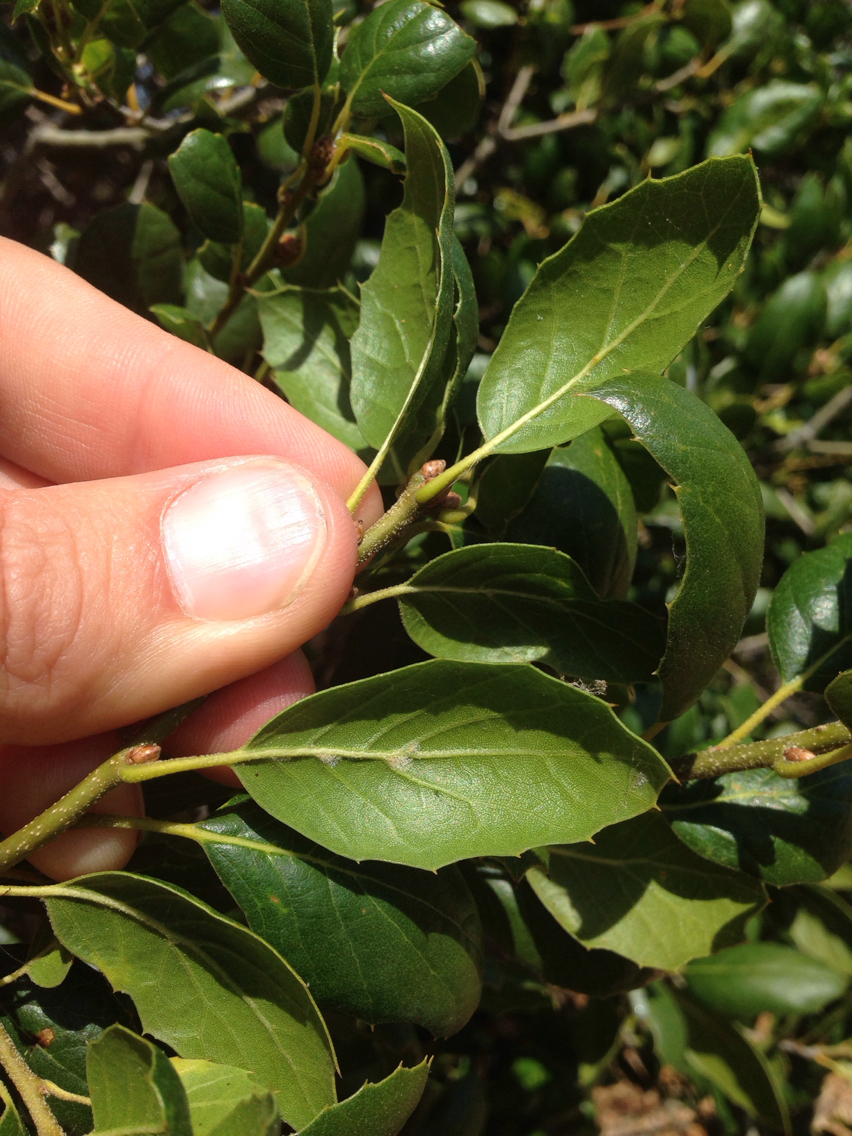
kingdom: Plantae
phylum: Tracheophyta
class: Magnoliopsida
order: Fagales
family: Fagaceae
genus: Quercus
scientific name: Quercus agrifolia
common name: California live oak
